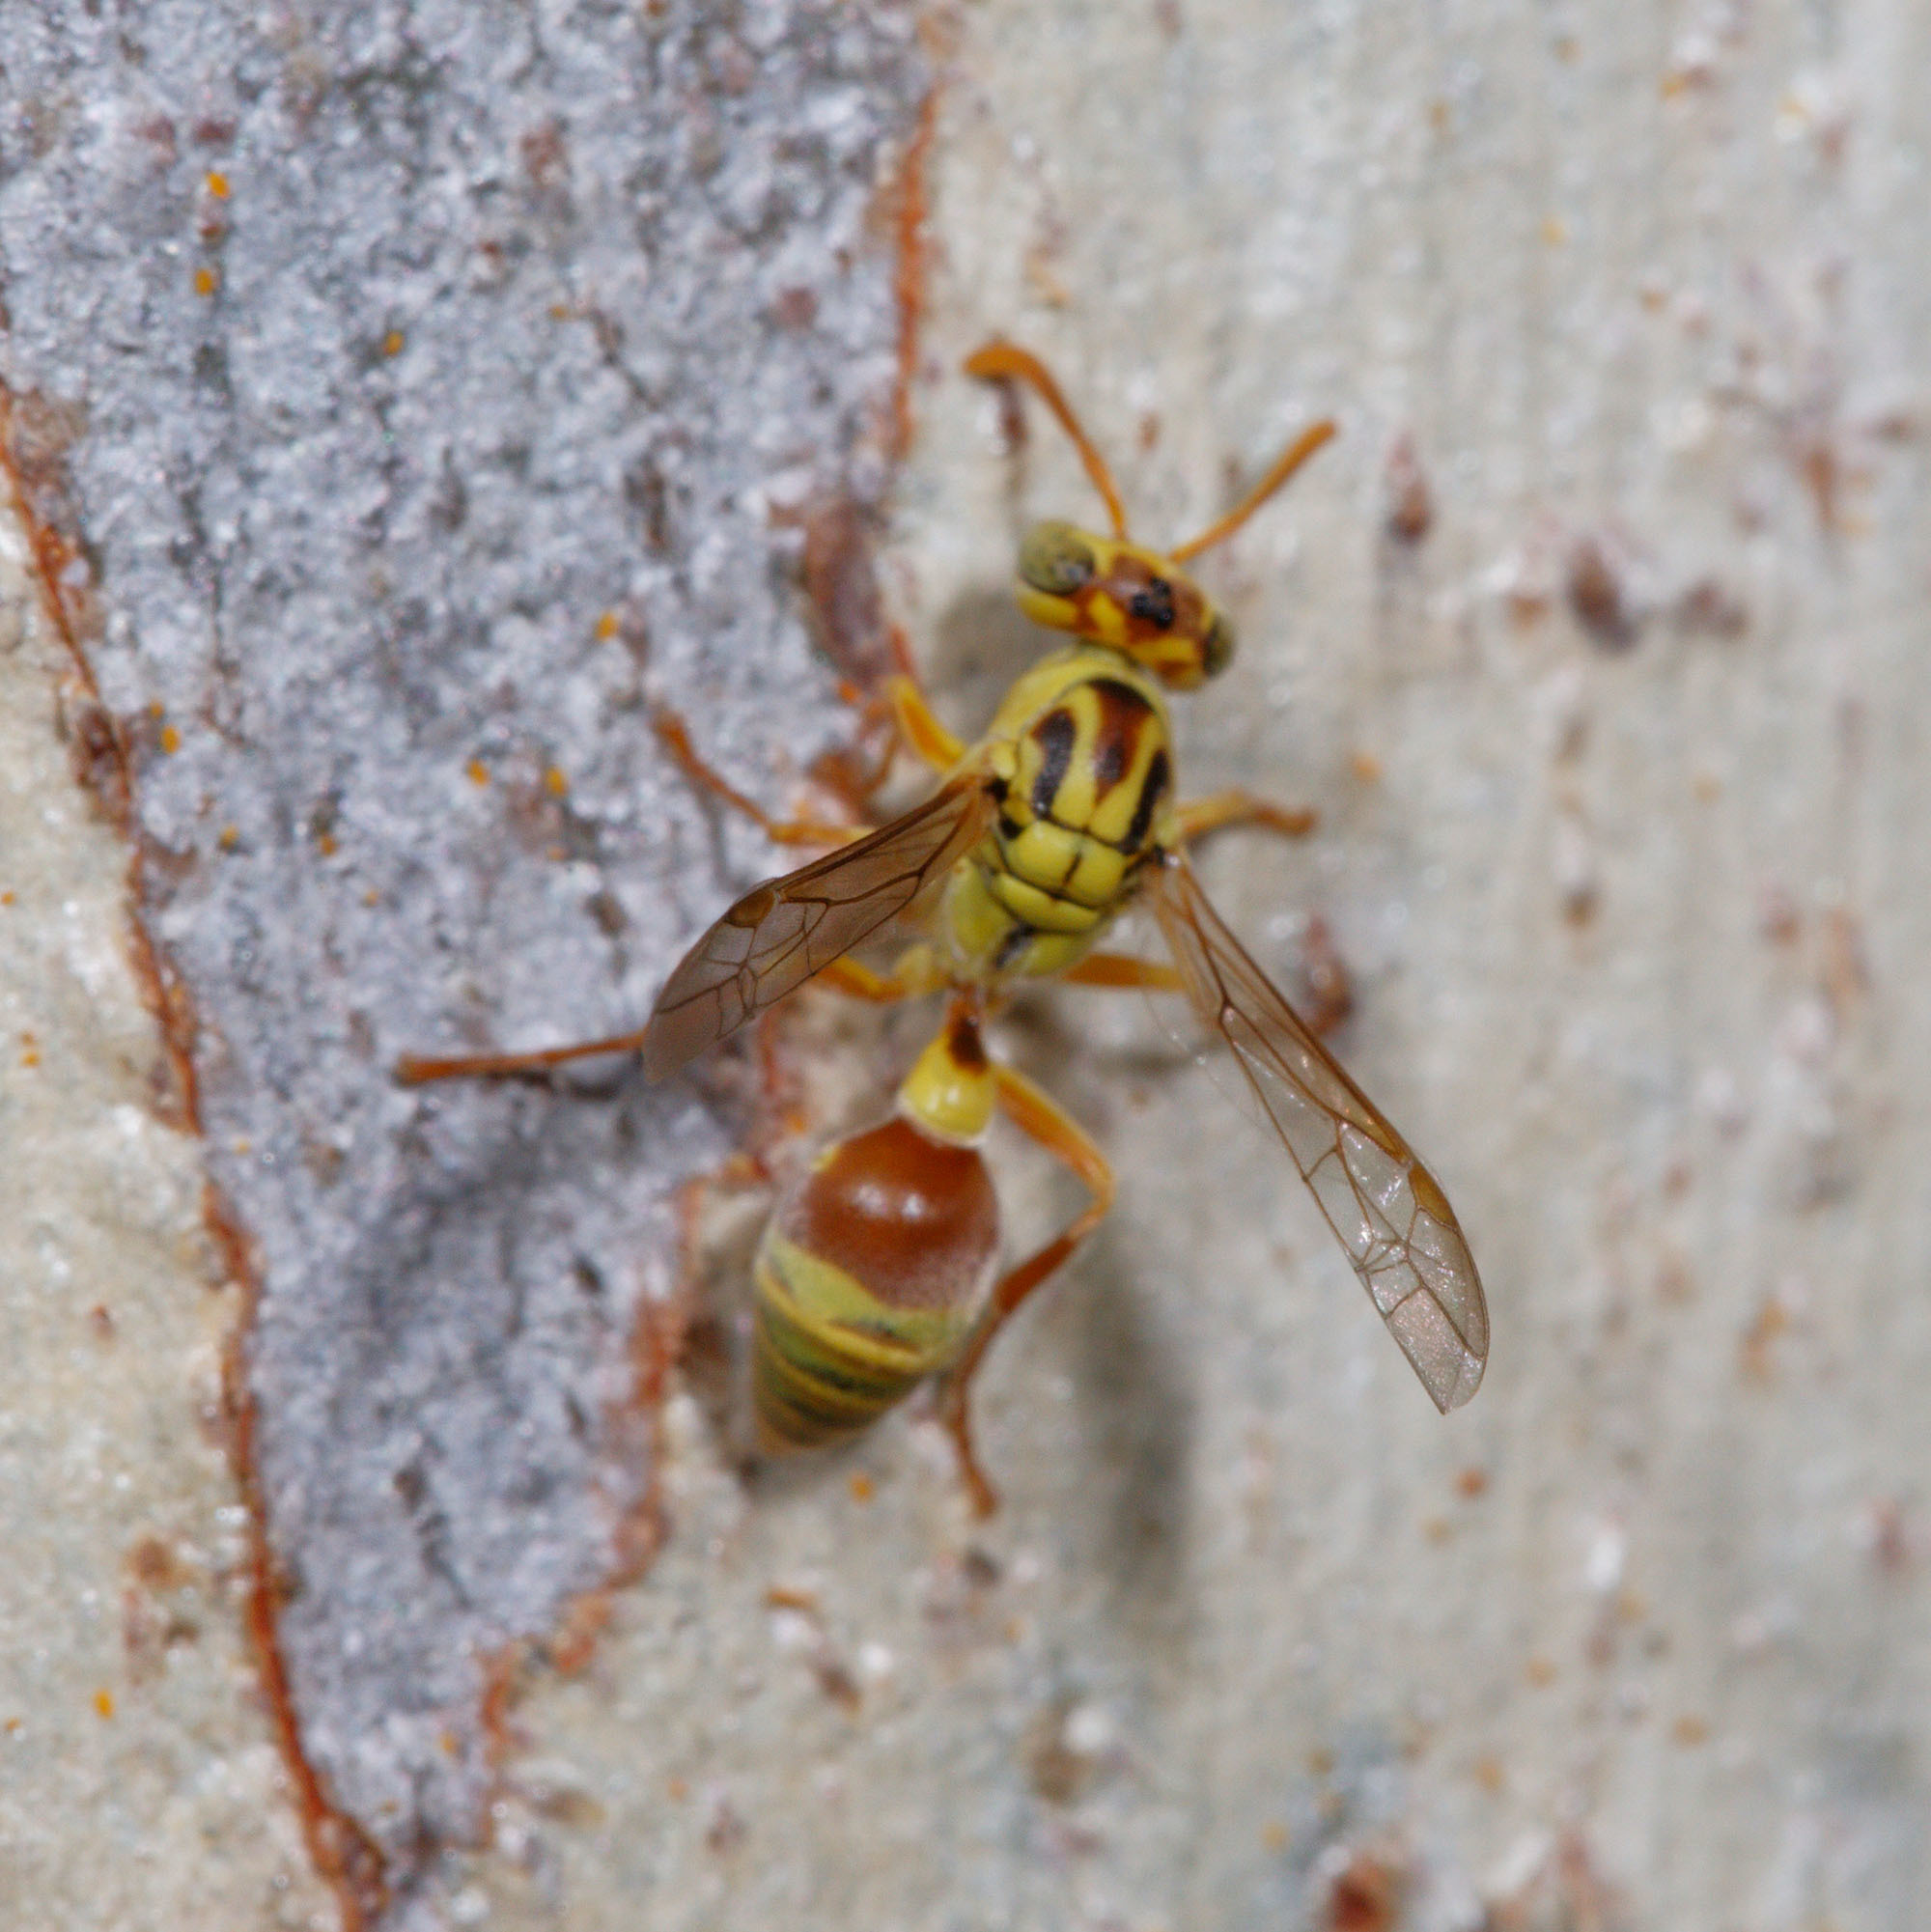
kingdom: Animalia
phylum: Arthropoda
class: Insecta
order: Hymenoptera
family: Vespidae
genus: Ropalidia
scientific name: Ropalidia romandi
